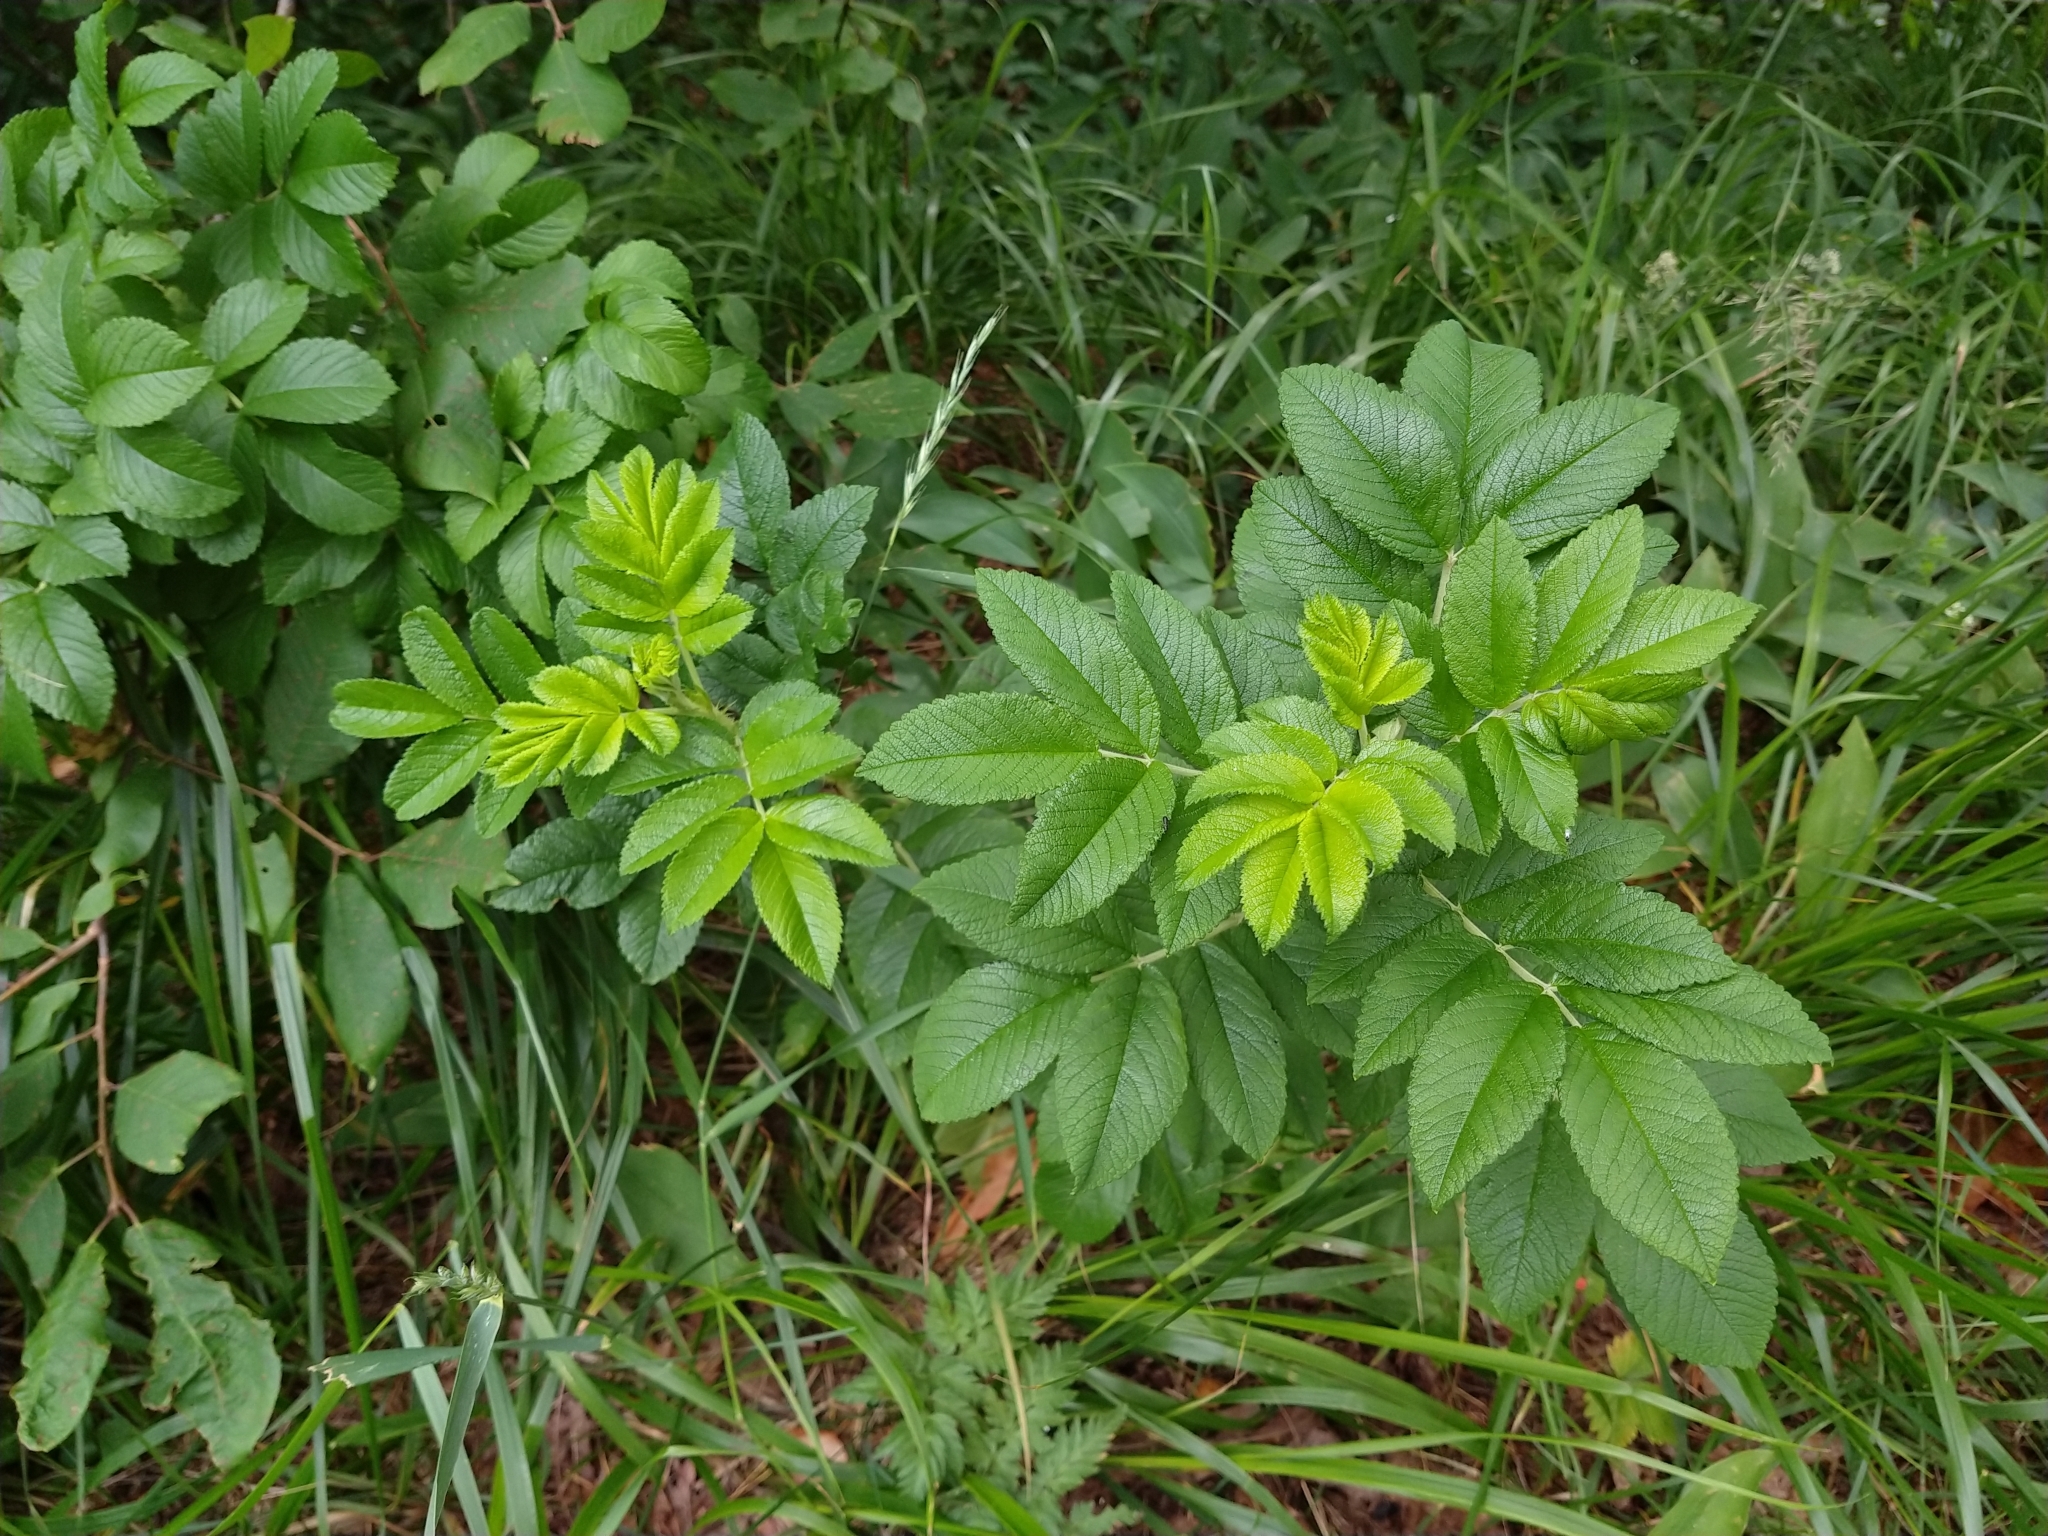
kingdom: Plantae
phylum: Tracheophyta
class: Magnoliopsida
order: Rosales
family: Rosaceae
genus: Rosa
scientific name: Rosa rugosa
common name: Japanese rose
